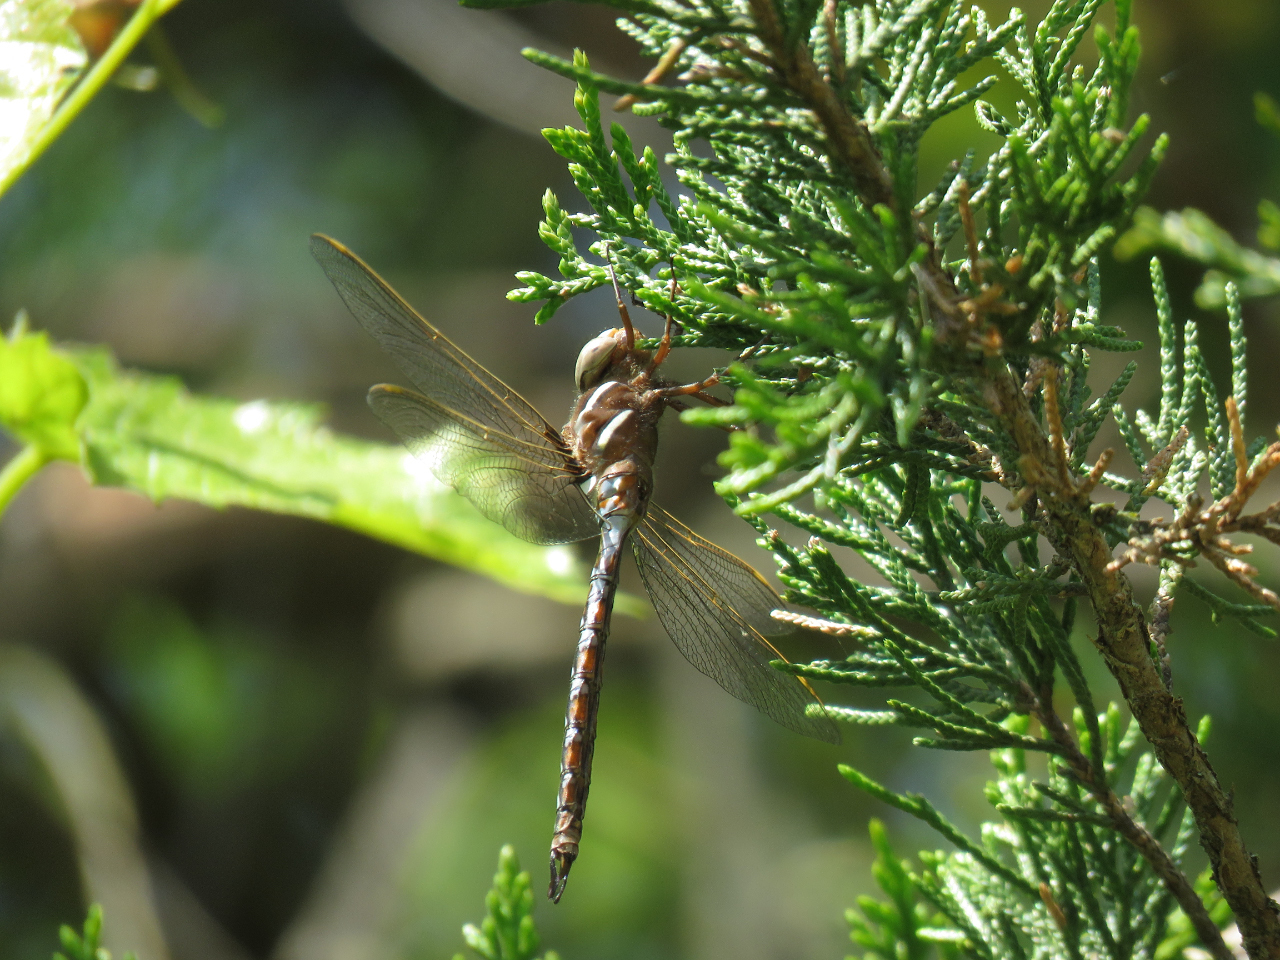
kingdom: Animalia
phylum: Arthropoda
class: Insecta
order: Odonata
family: Aeshnidae
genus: Basiaeschna
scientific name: Basiaeschna janata
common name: Springtime darner
